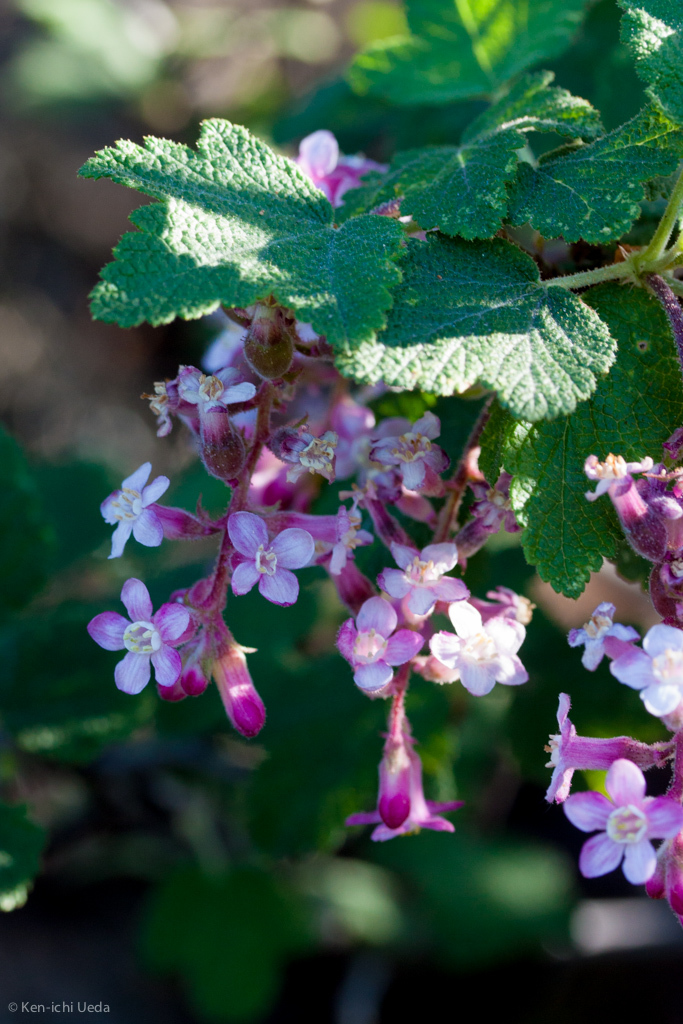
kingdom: Plantae
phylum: Tracheophyta
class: Magnoliopsida
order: Saxifragales
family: Grossulariaceae
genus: Ribes
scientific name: Ribes malvaceum
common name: Chaparral currant
